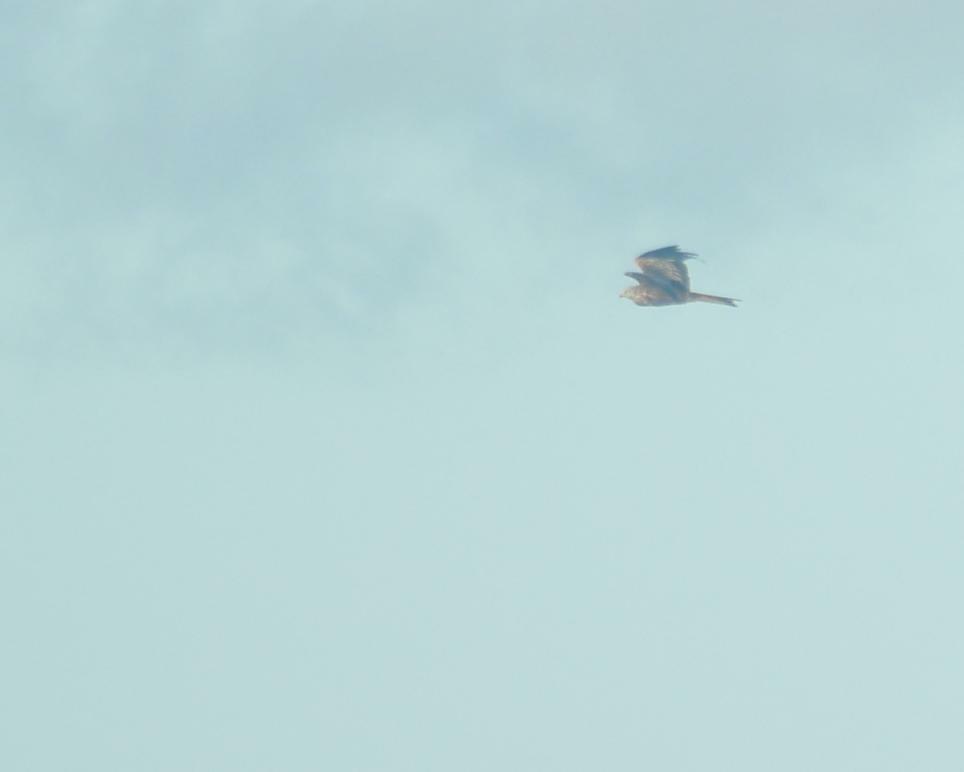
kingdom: Animalia
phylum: Chordata
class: Aves
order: Accipitriformes
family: Accipitridae
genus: Milvus
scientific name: Milvus milvus
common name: Red kite
